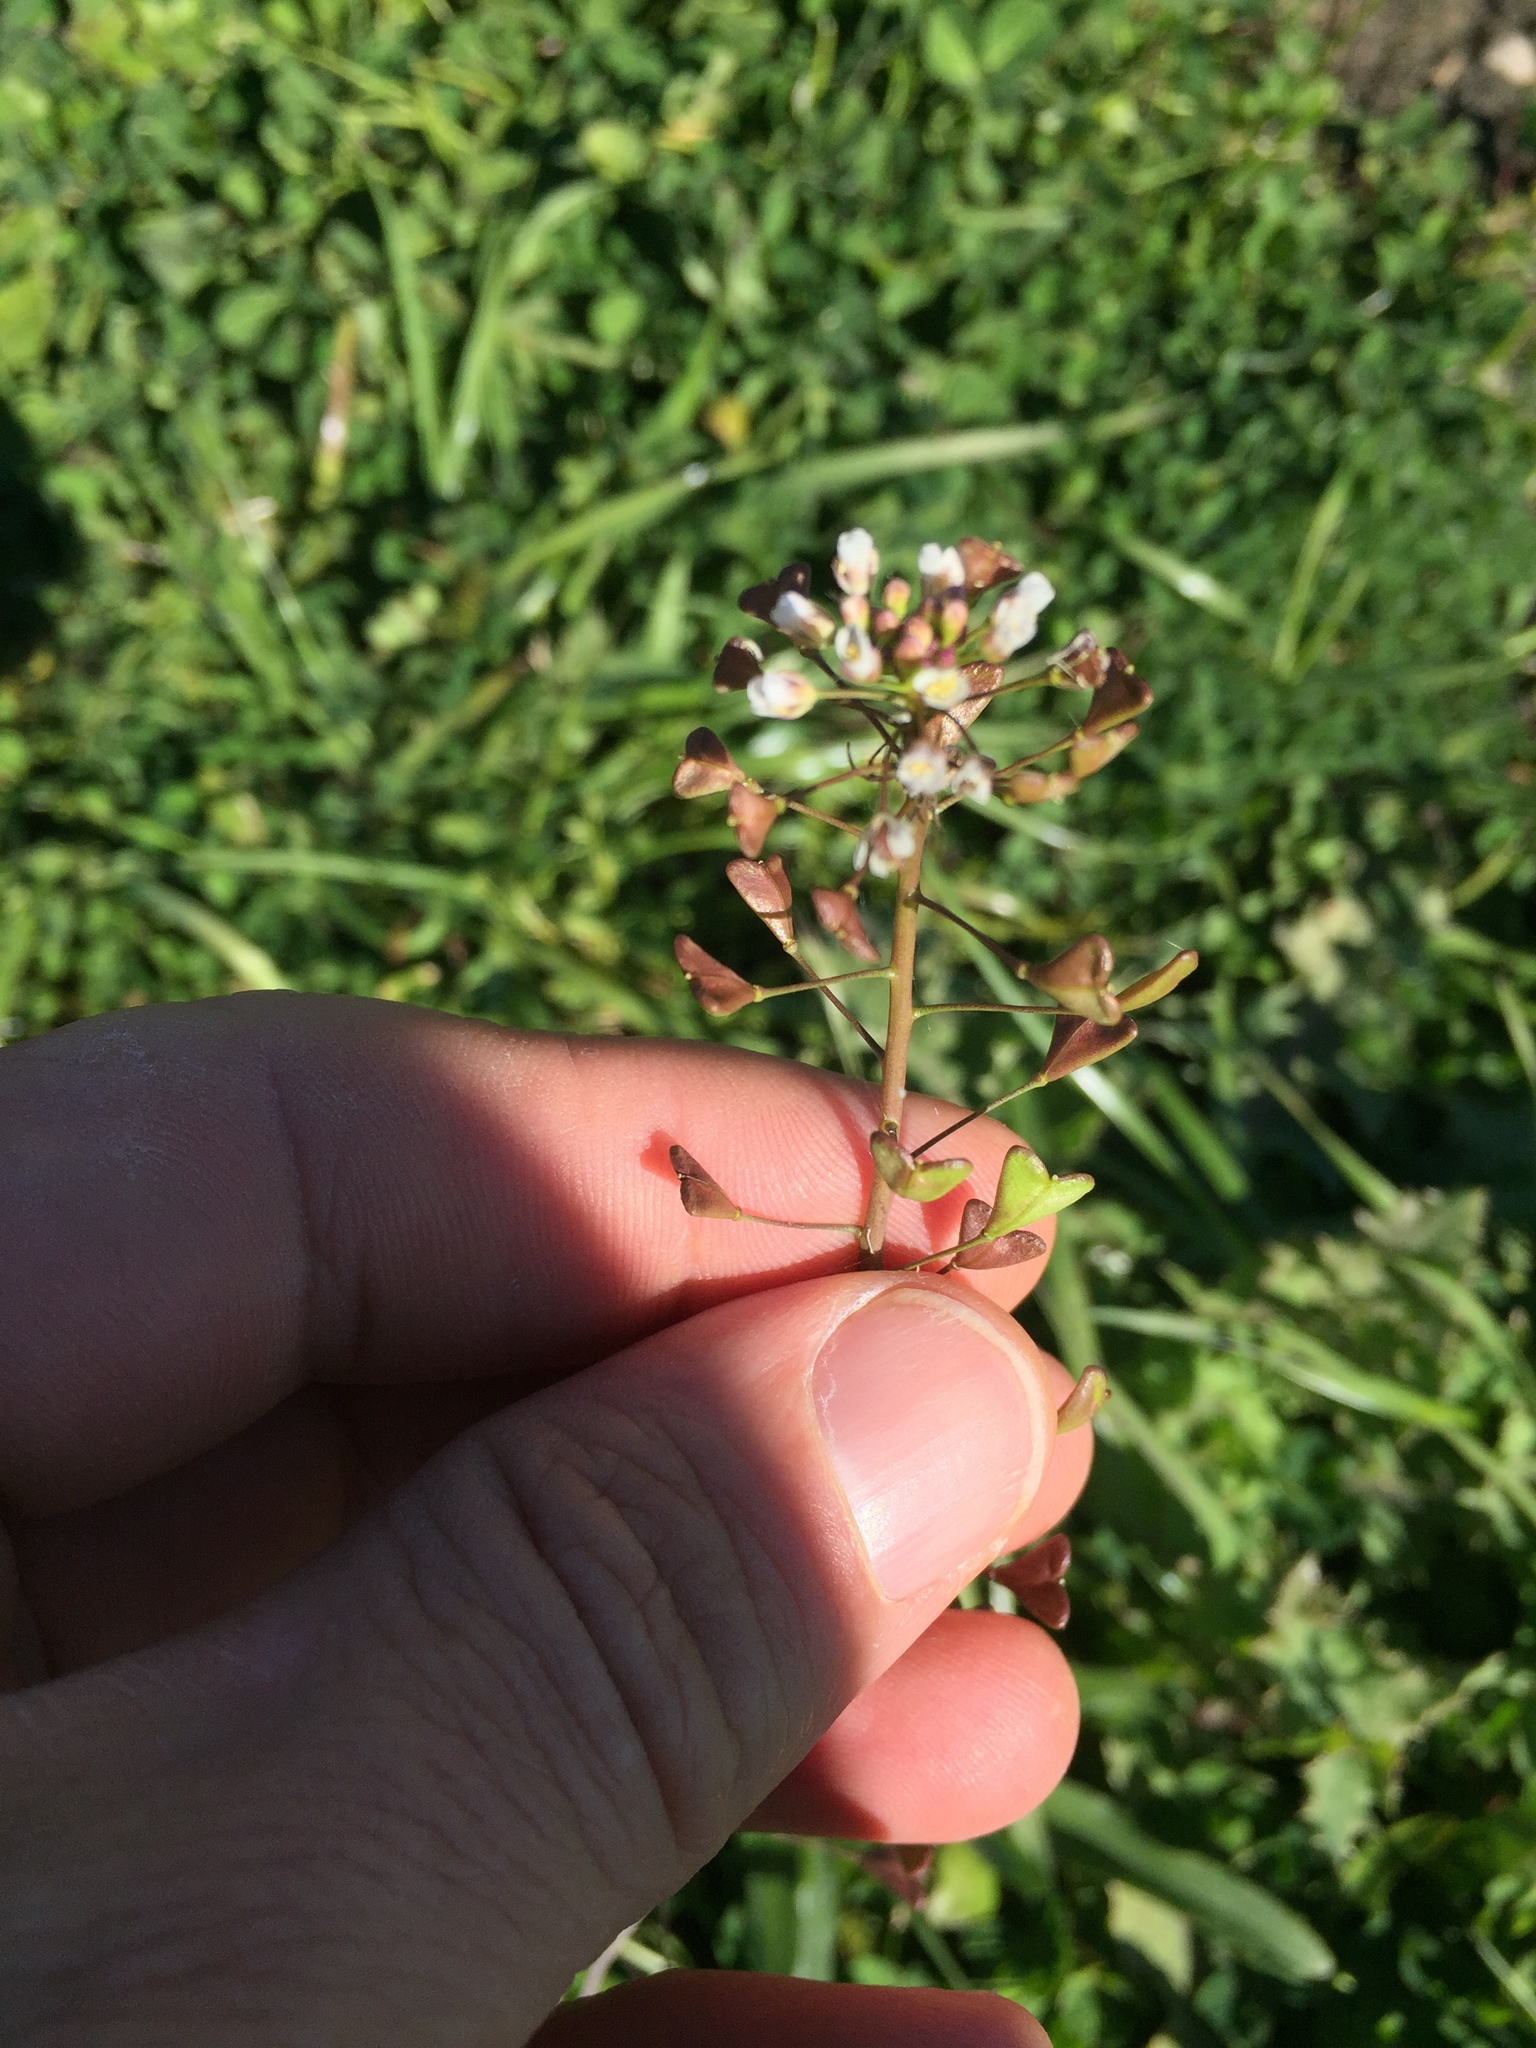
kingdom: Plantae
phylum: Tracheophyta
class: Magnoliopsida
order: Brassicales
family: Brassicaceae
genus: Capsella
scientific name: Capsella bursa-pastoris
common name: Shepherd's purse
